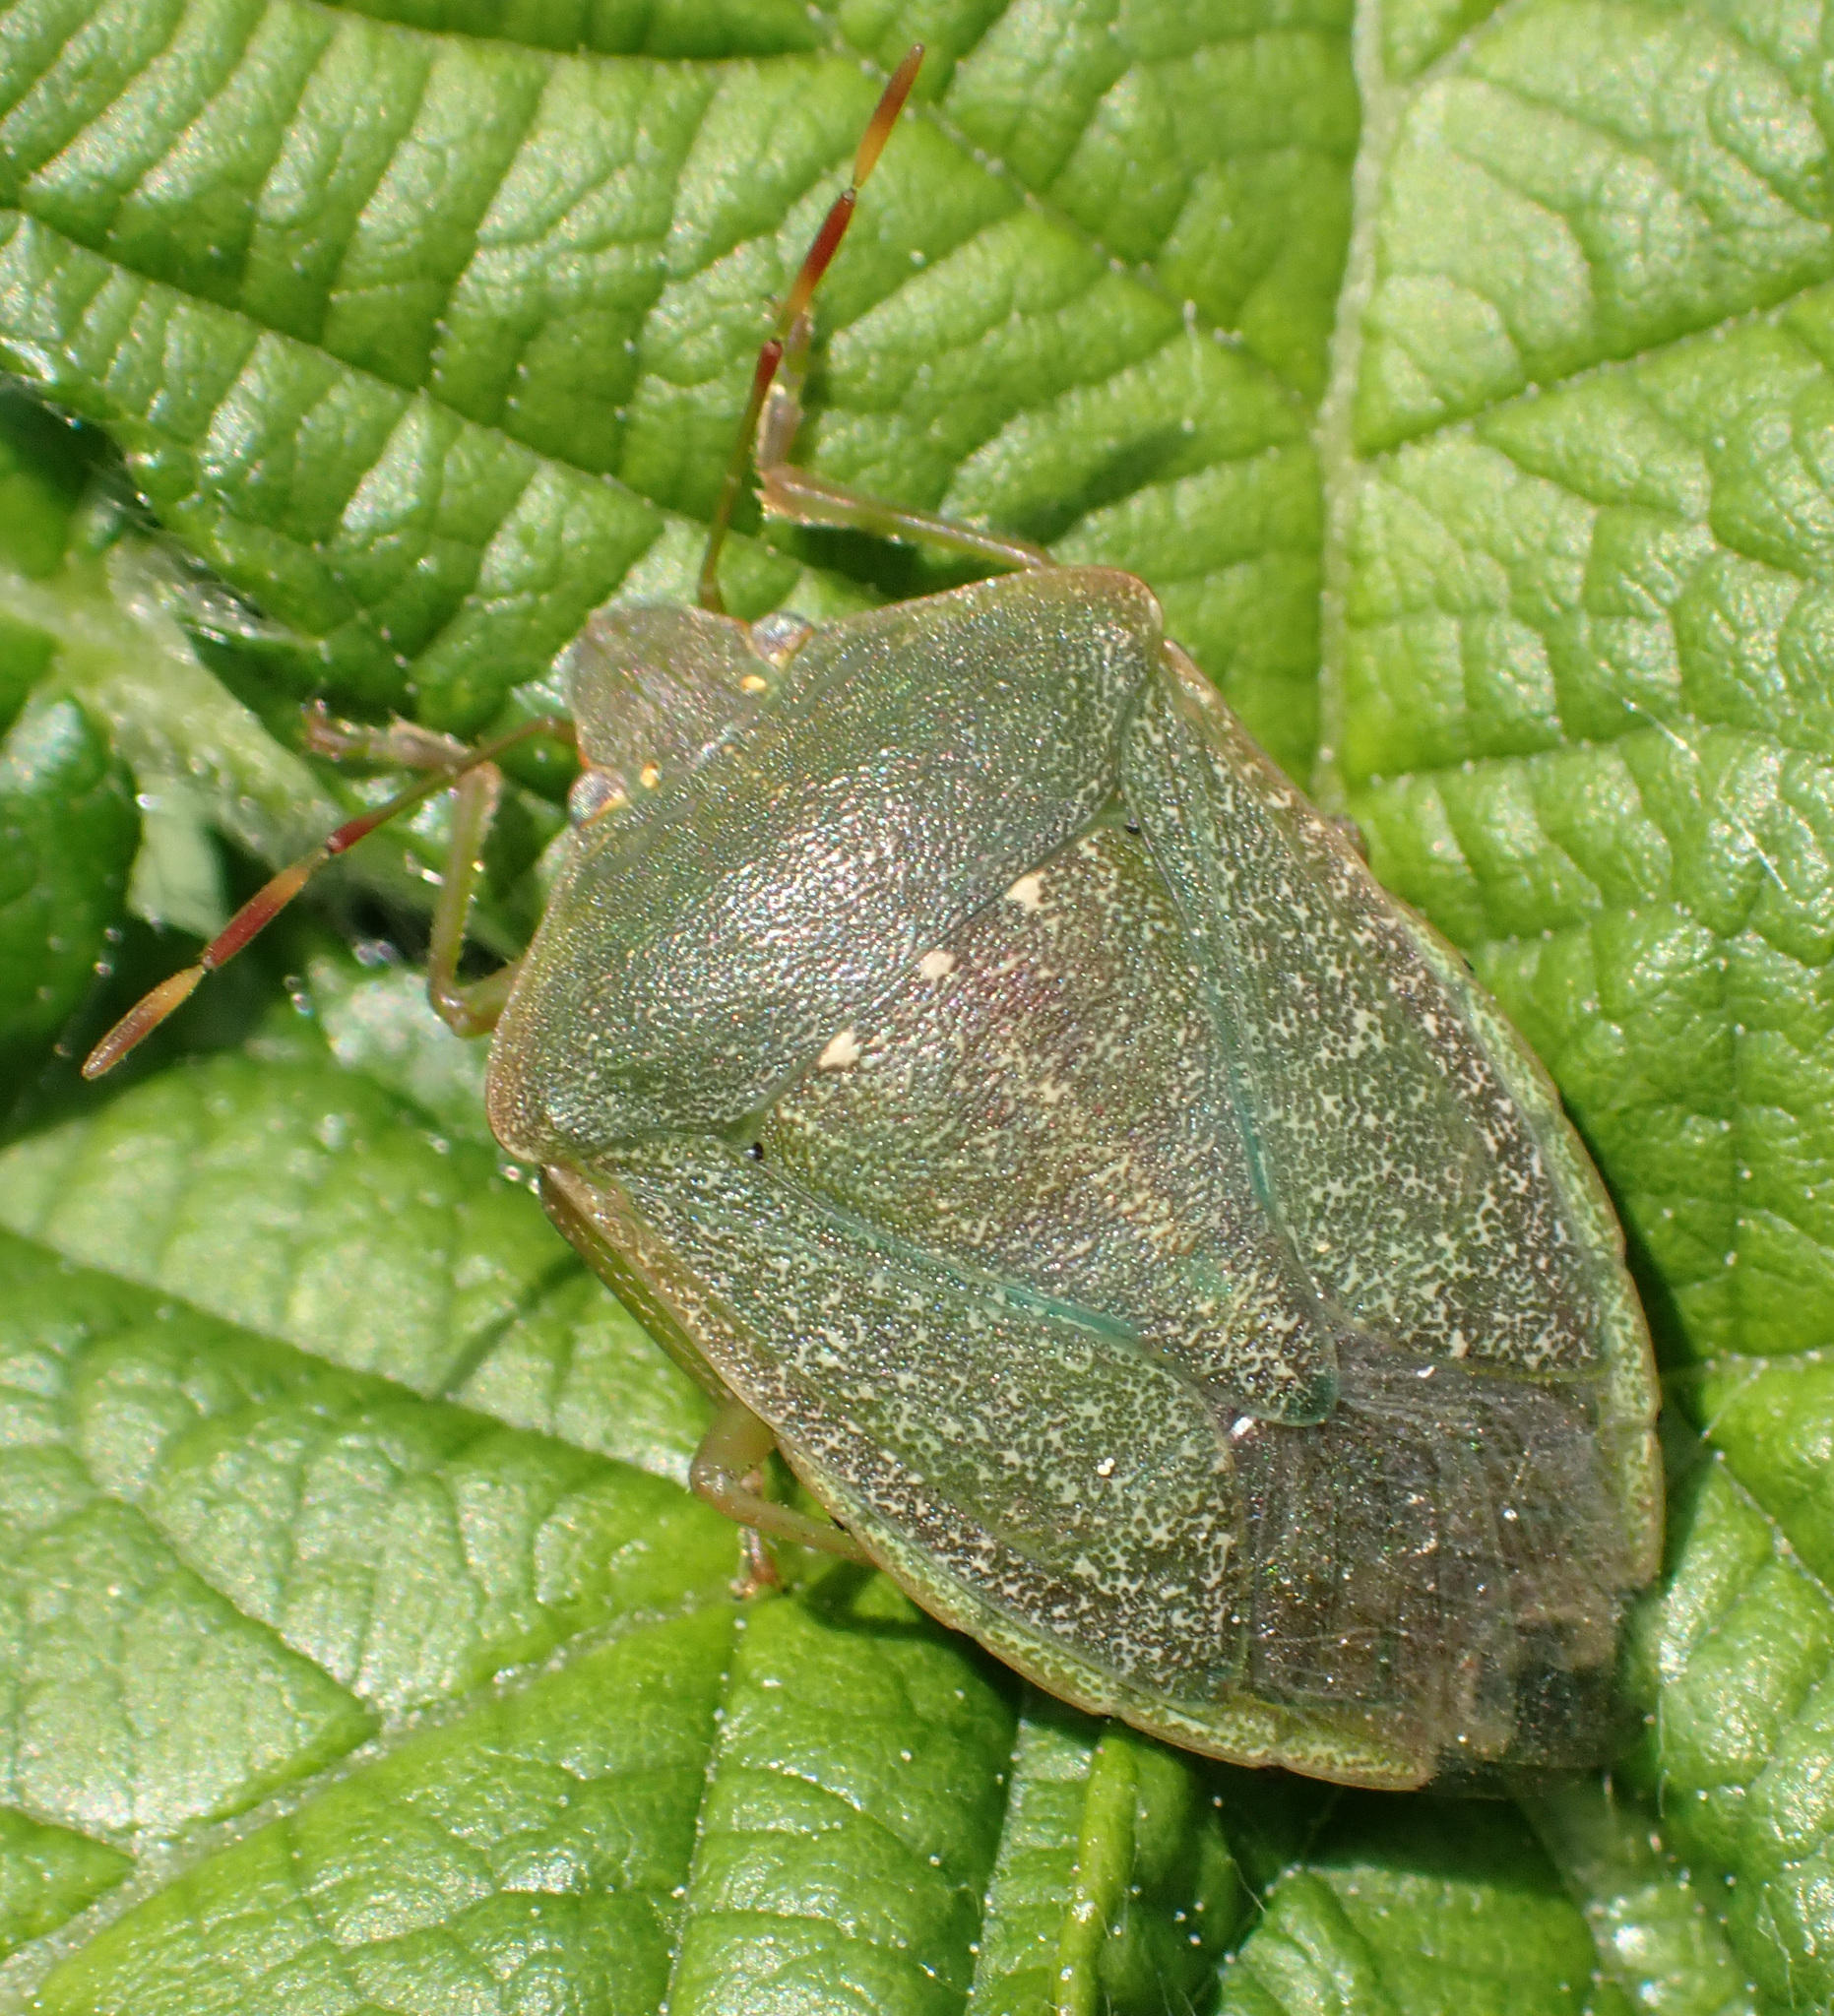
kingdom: Animalia
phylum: Arthropoda
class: Insecta
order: Hemiptera
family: Pentatomidae
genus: Nezara
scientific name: Nezara viridula
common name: Southern green stink bug
